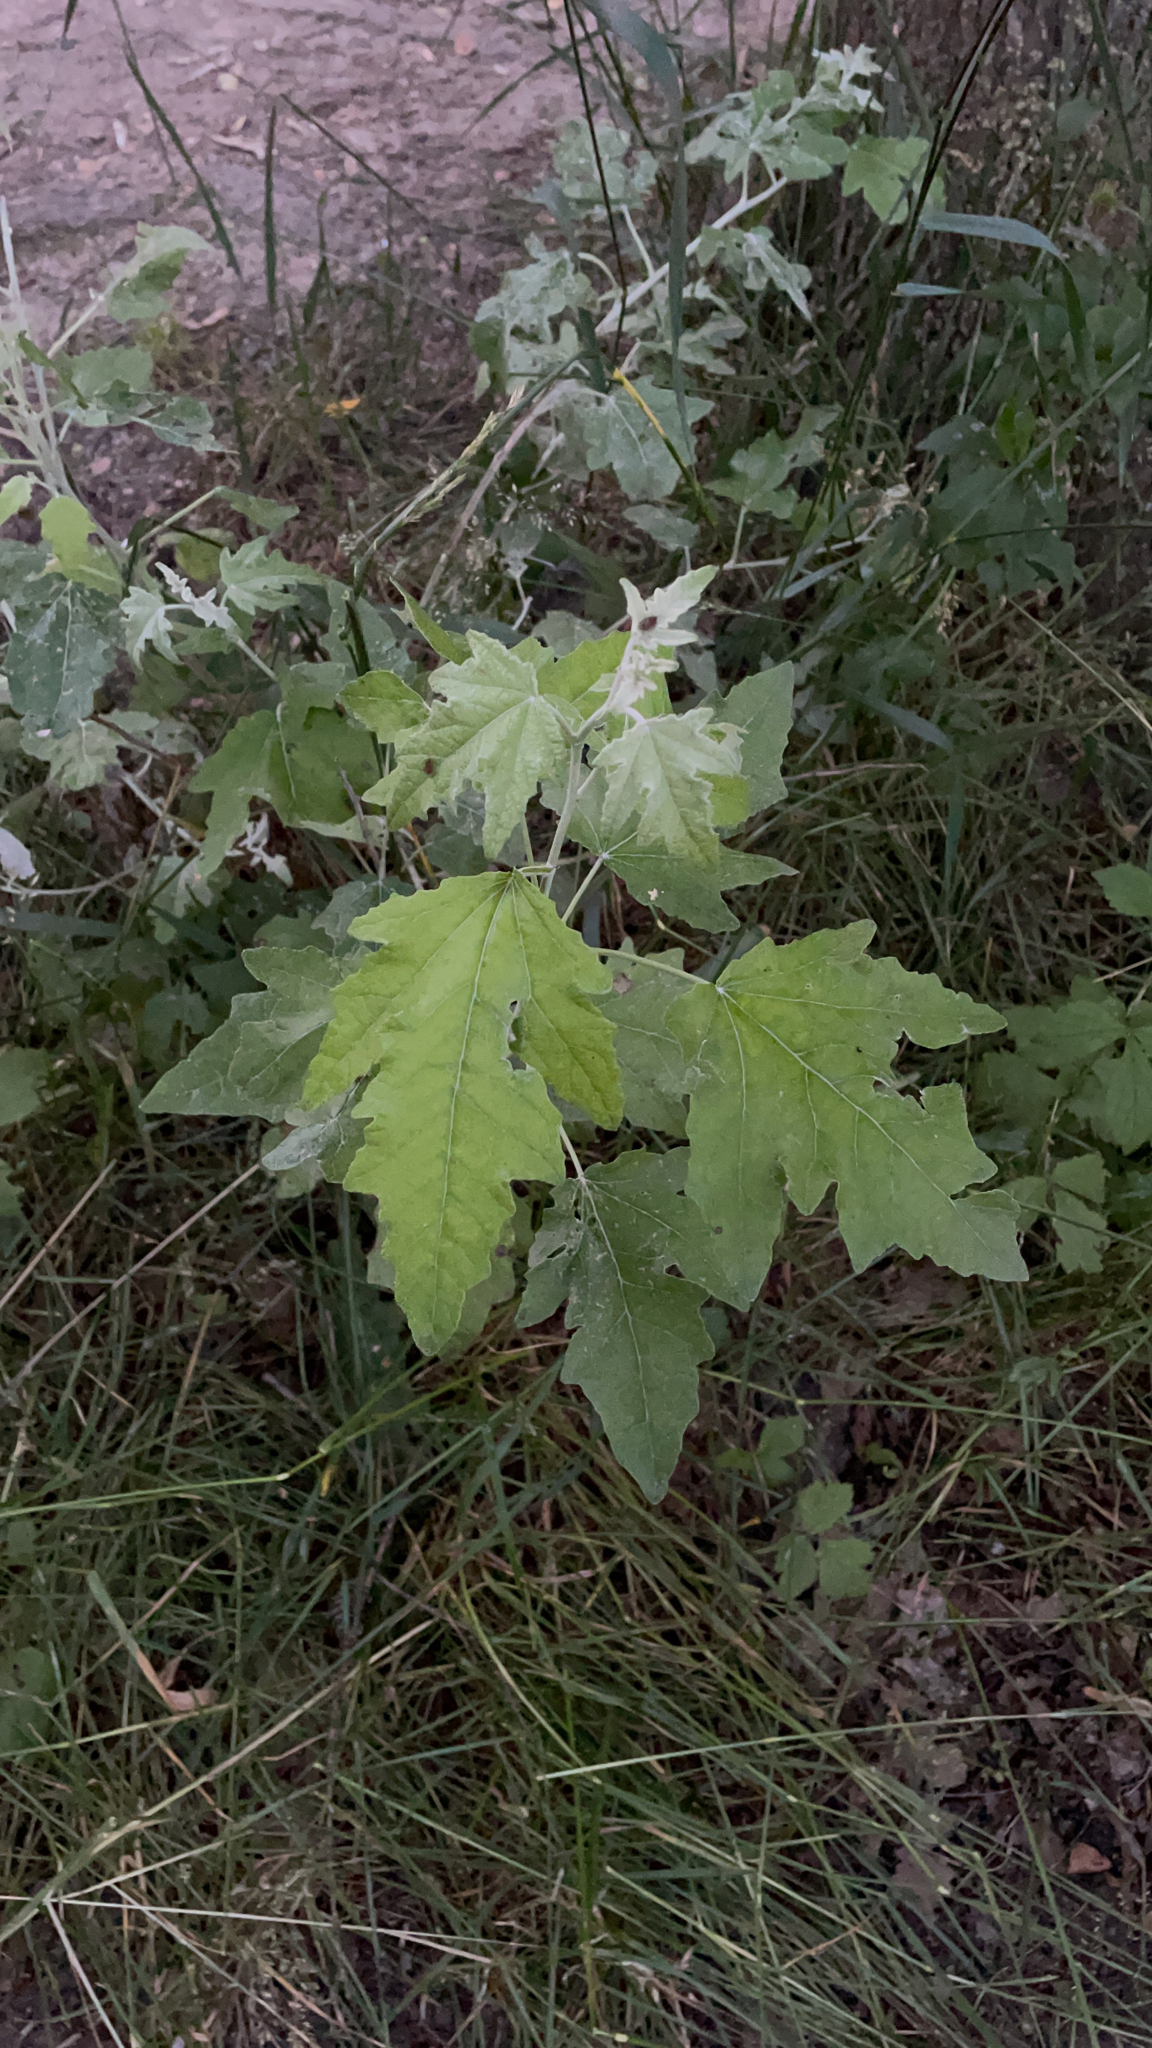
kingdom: Plantae
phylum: Tracheophyta
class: Magnoliopsida
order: Malpighiales
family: Salicaceae
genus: Populus
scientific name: Populus alba
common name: White poplar
